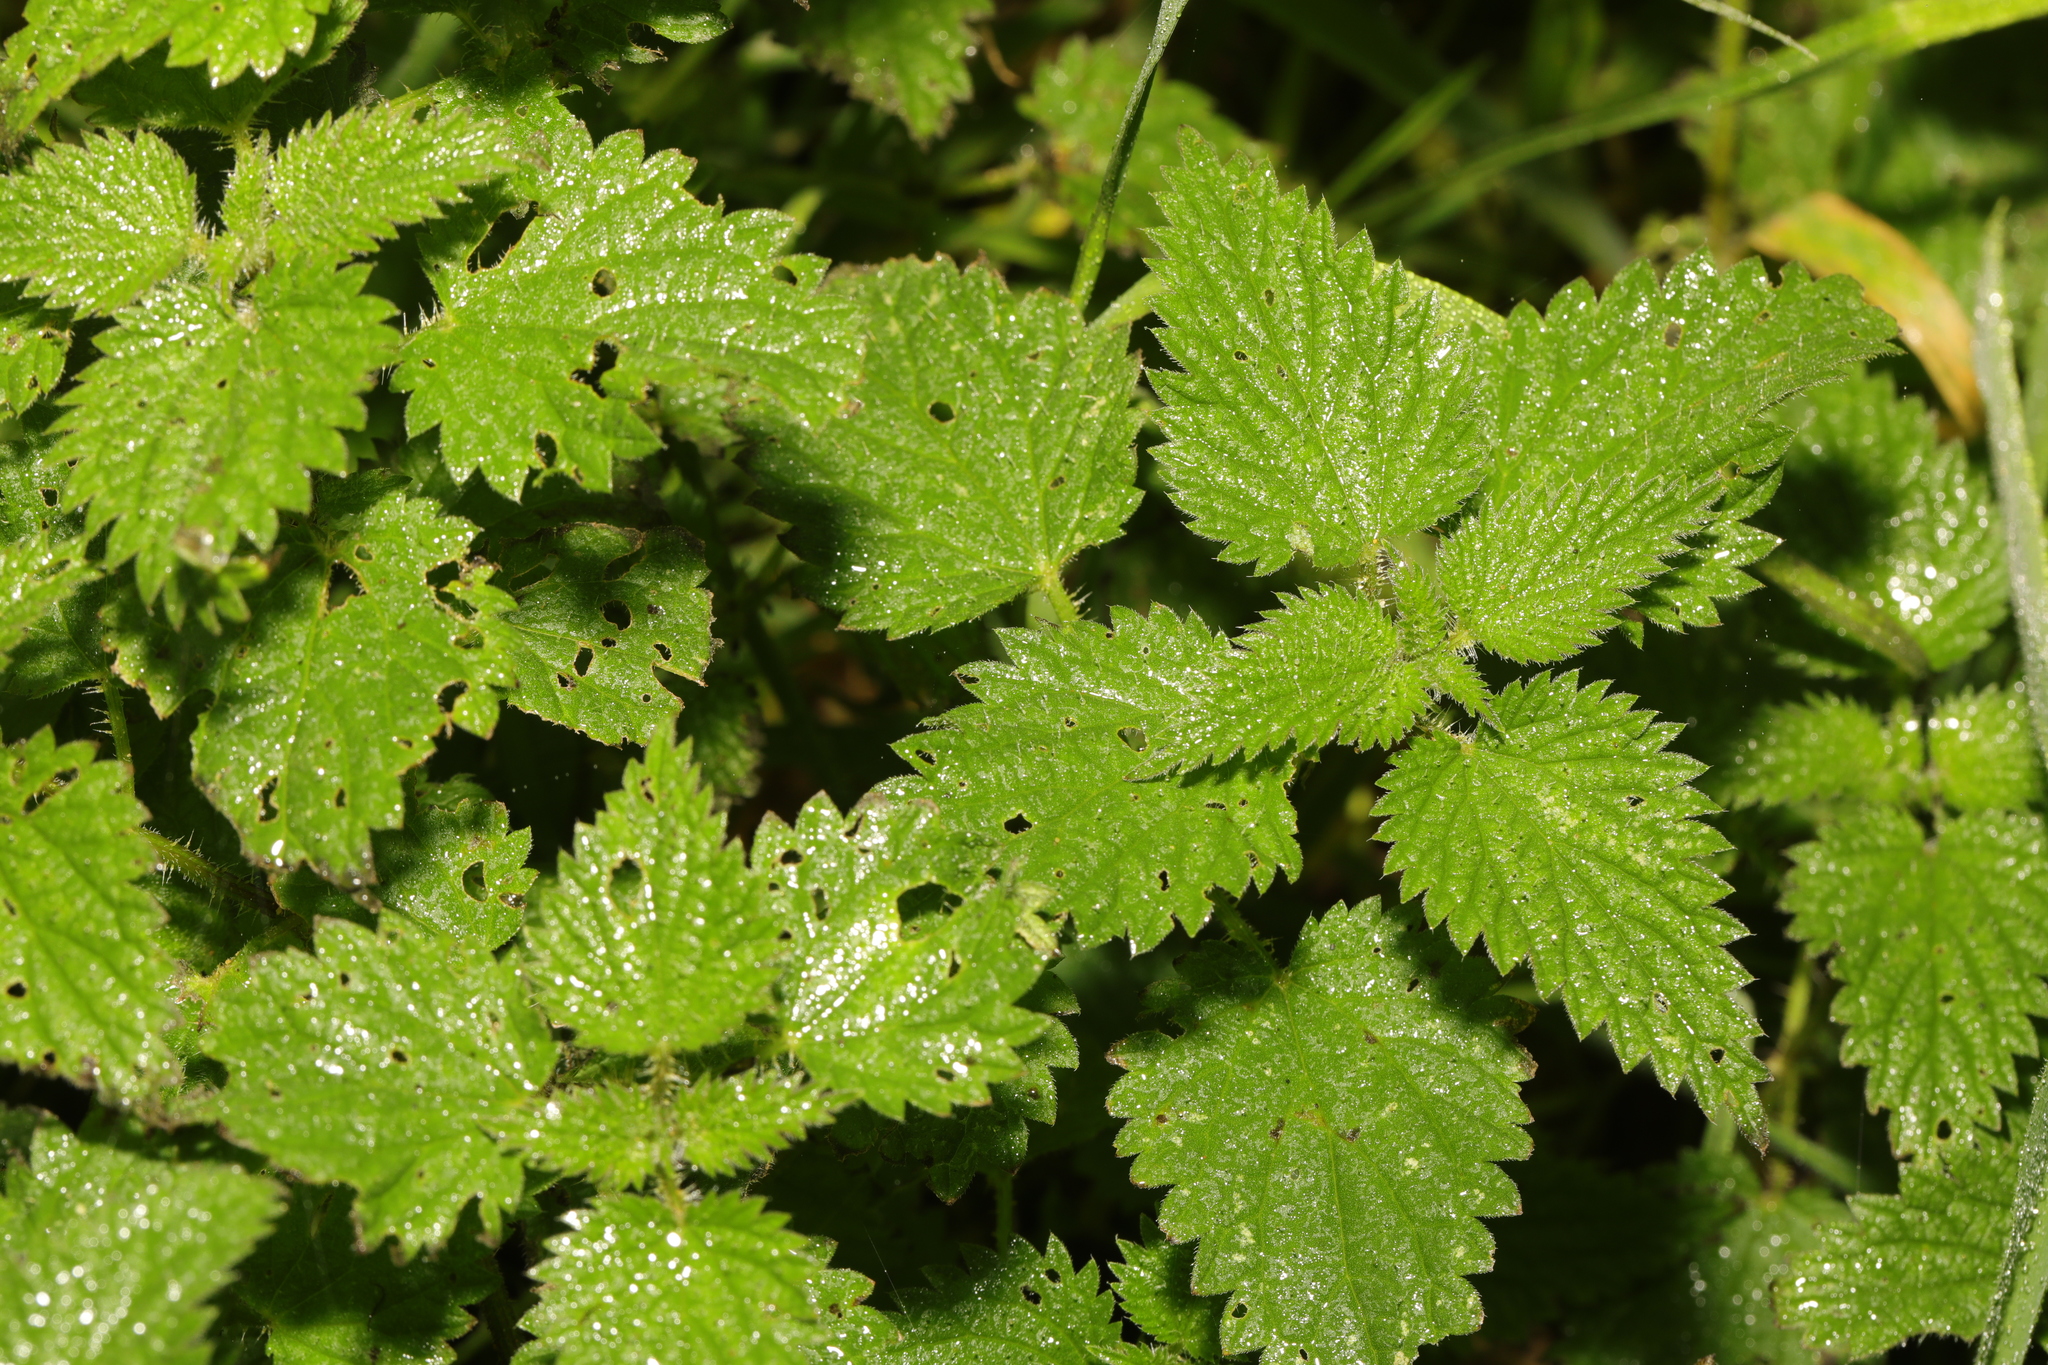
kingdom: Plantae
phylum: Tracheophyta
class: Magnoliopsida
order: Rosales
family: Urticaceae
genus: Urtica
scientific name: Urtica dioica
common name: Common nettle
